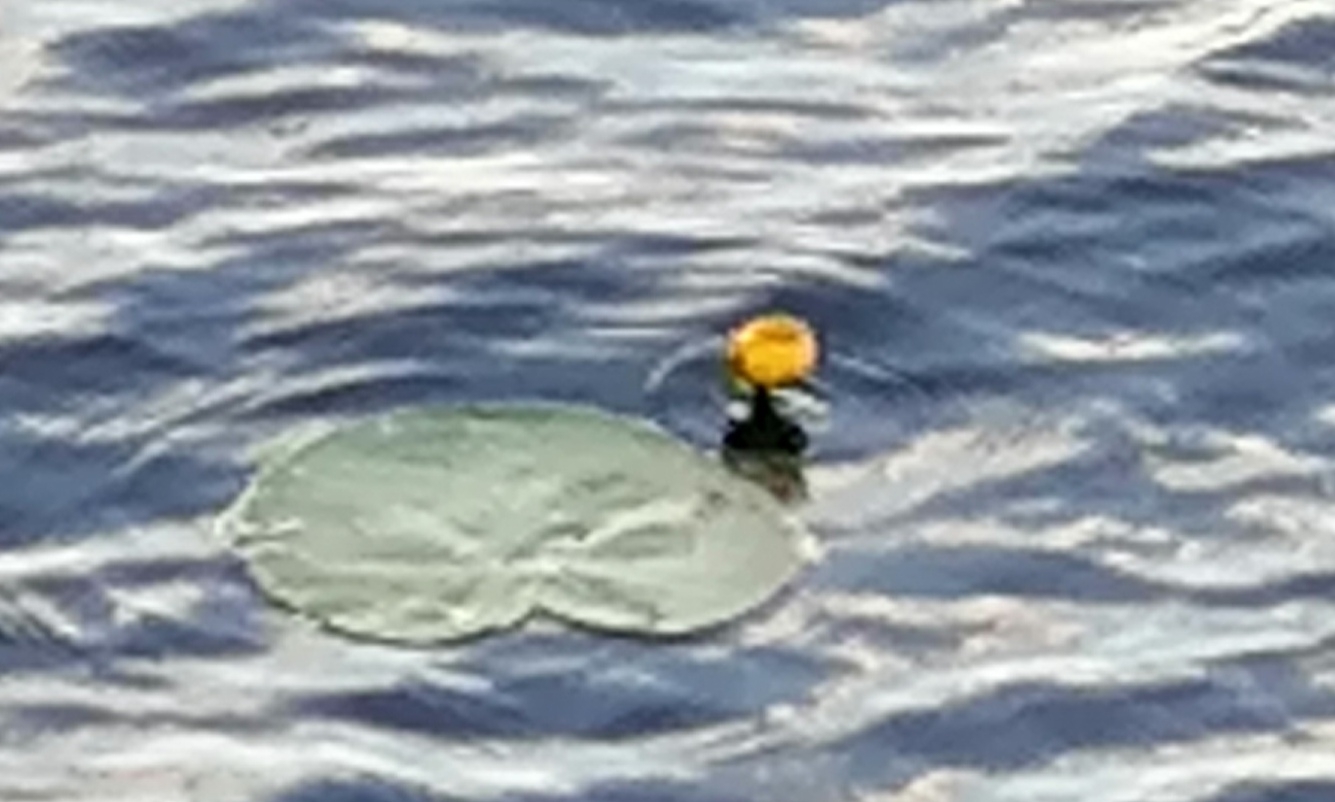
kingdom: Plantae
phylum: Tracheophyta
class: Magnoliopsida
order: Nymphaeales
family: Nymphaeaceae
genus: Nuphar
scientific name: Nuphar lutea
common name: Yellow water-lily
